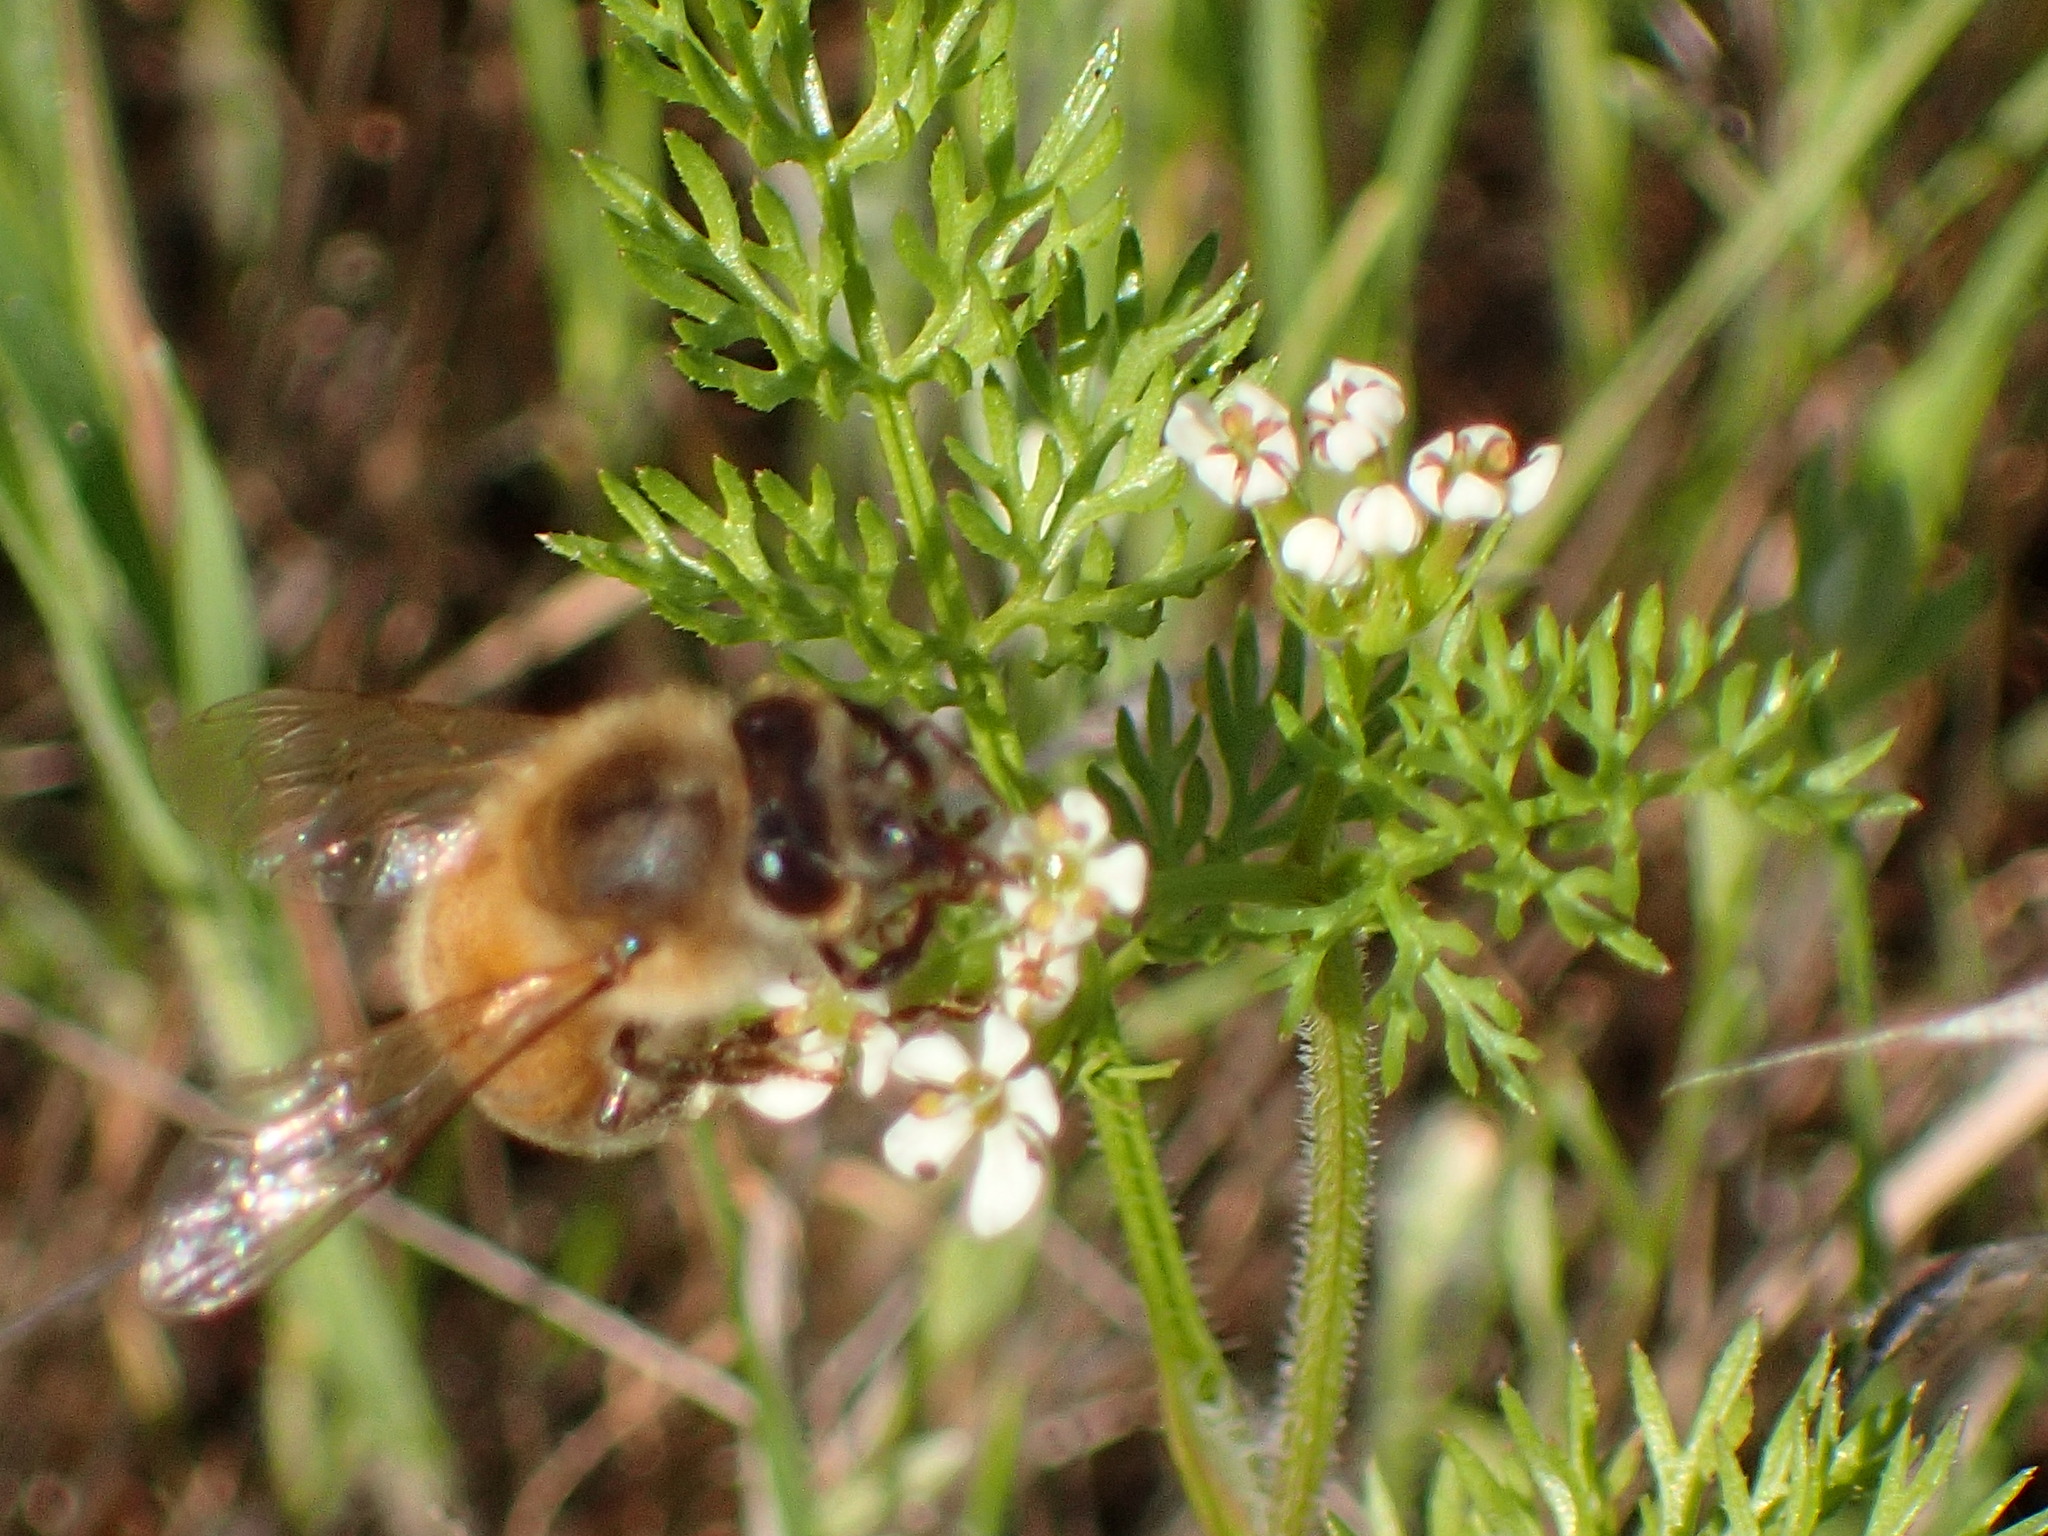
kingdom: Animalia
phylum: Arthropoda
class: Insecta
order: Hymenoptera
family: Apidae
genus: Apis
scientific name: Apis mellifera
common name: Honey bee
